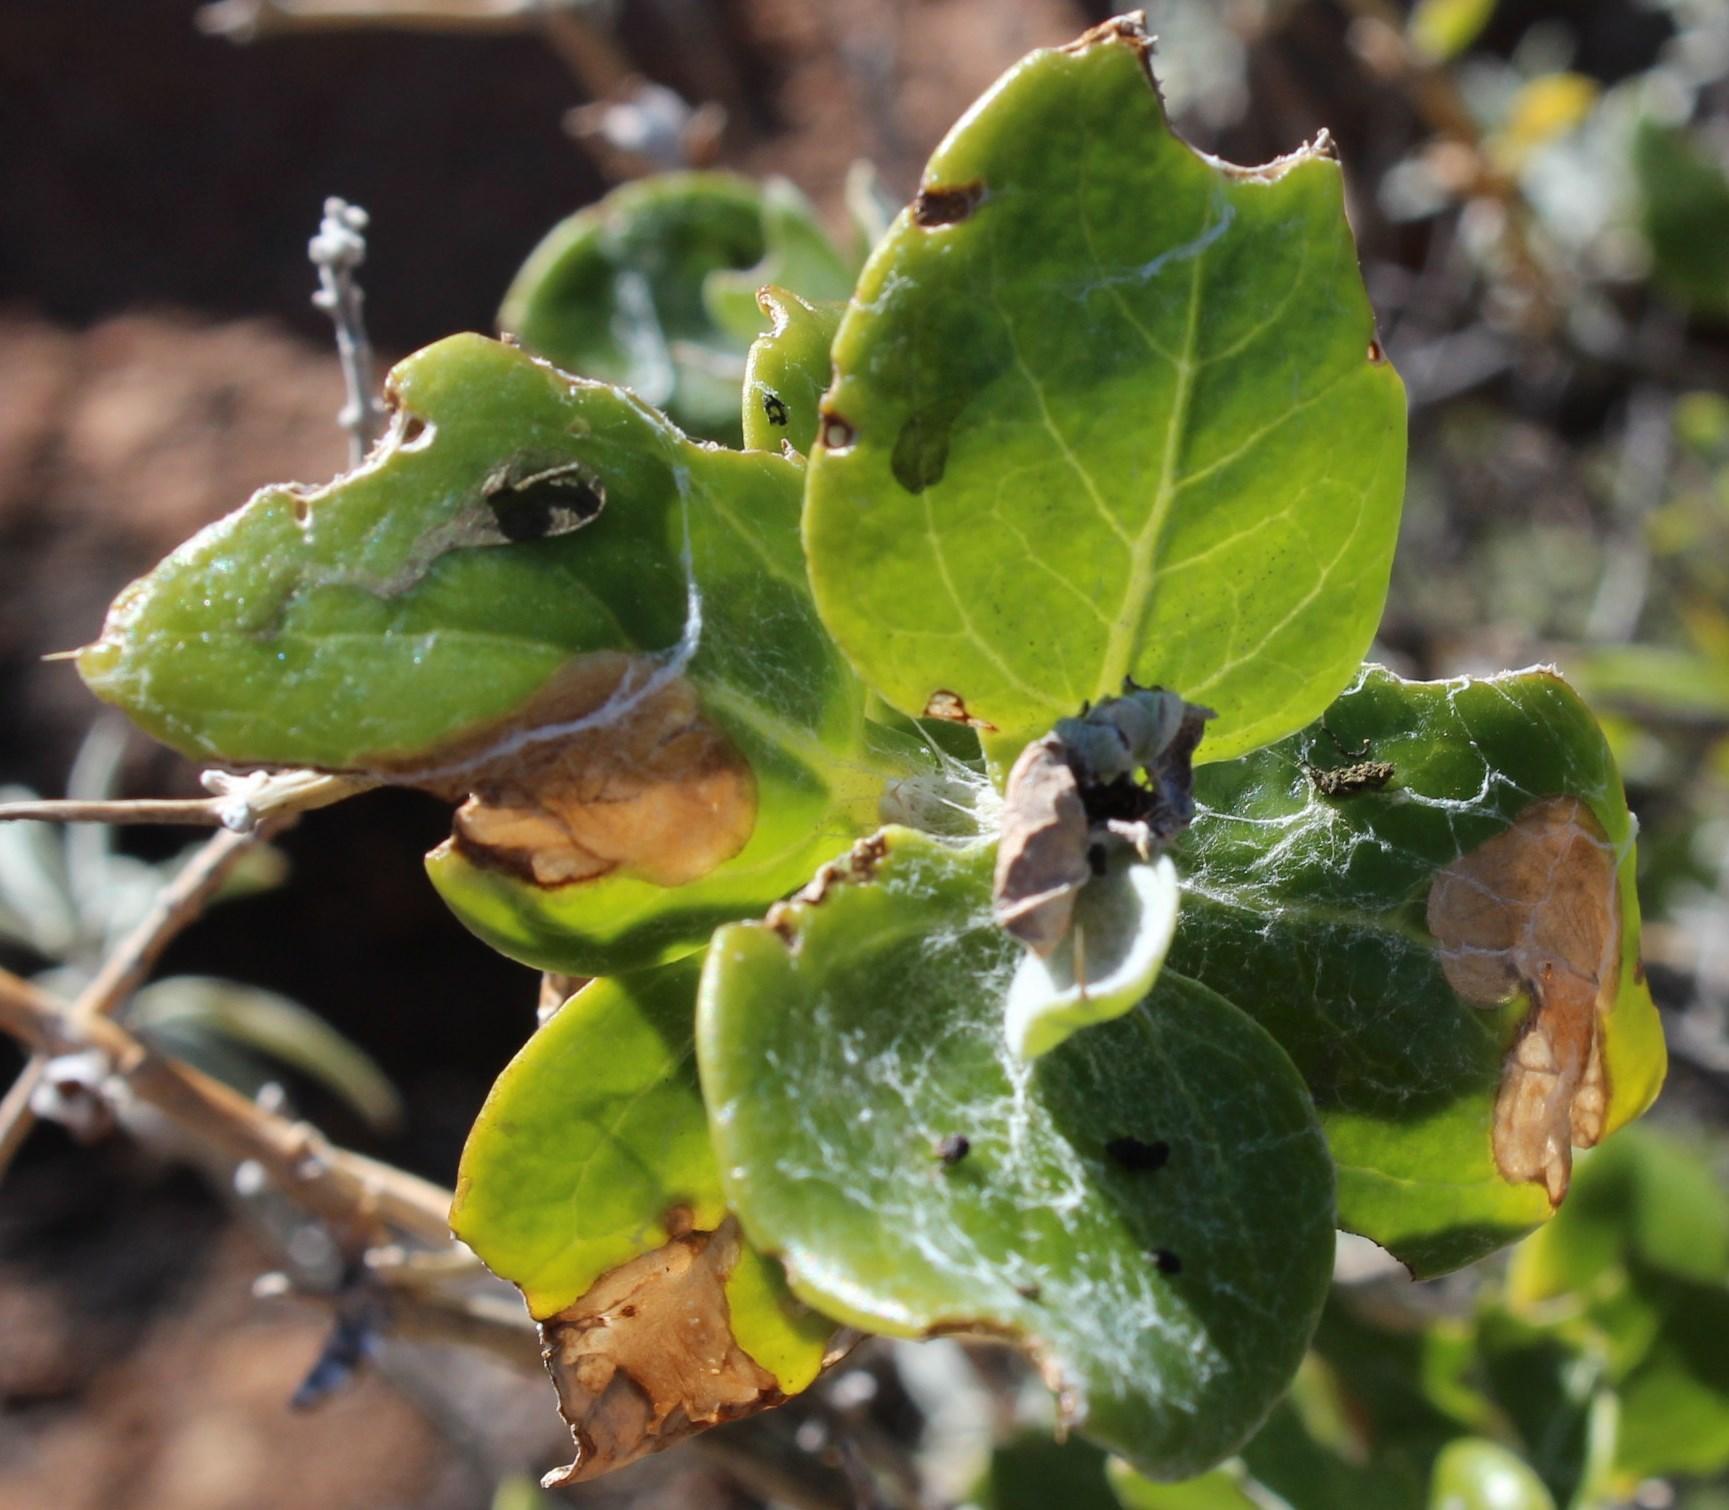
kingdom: Plantae
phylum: Tracheophyta
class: Magnoliopsida
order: Asterales
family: Asteraceae
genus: Didelta
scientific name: Didelta spinosa
